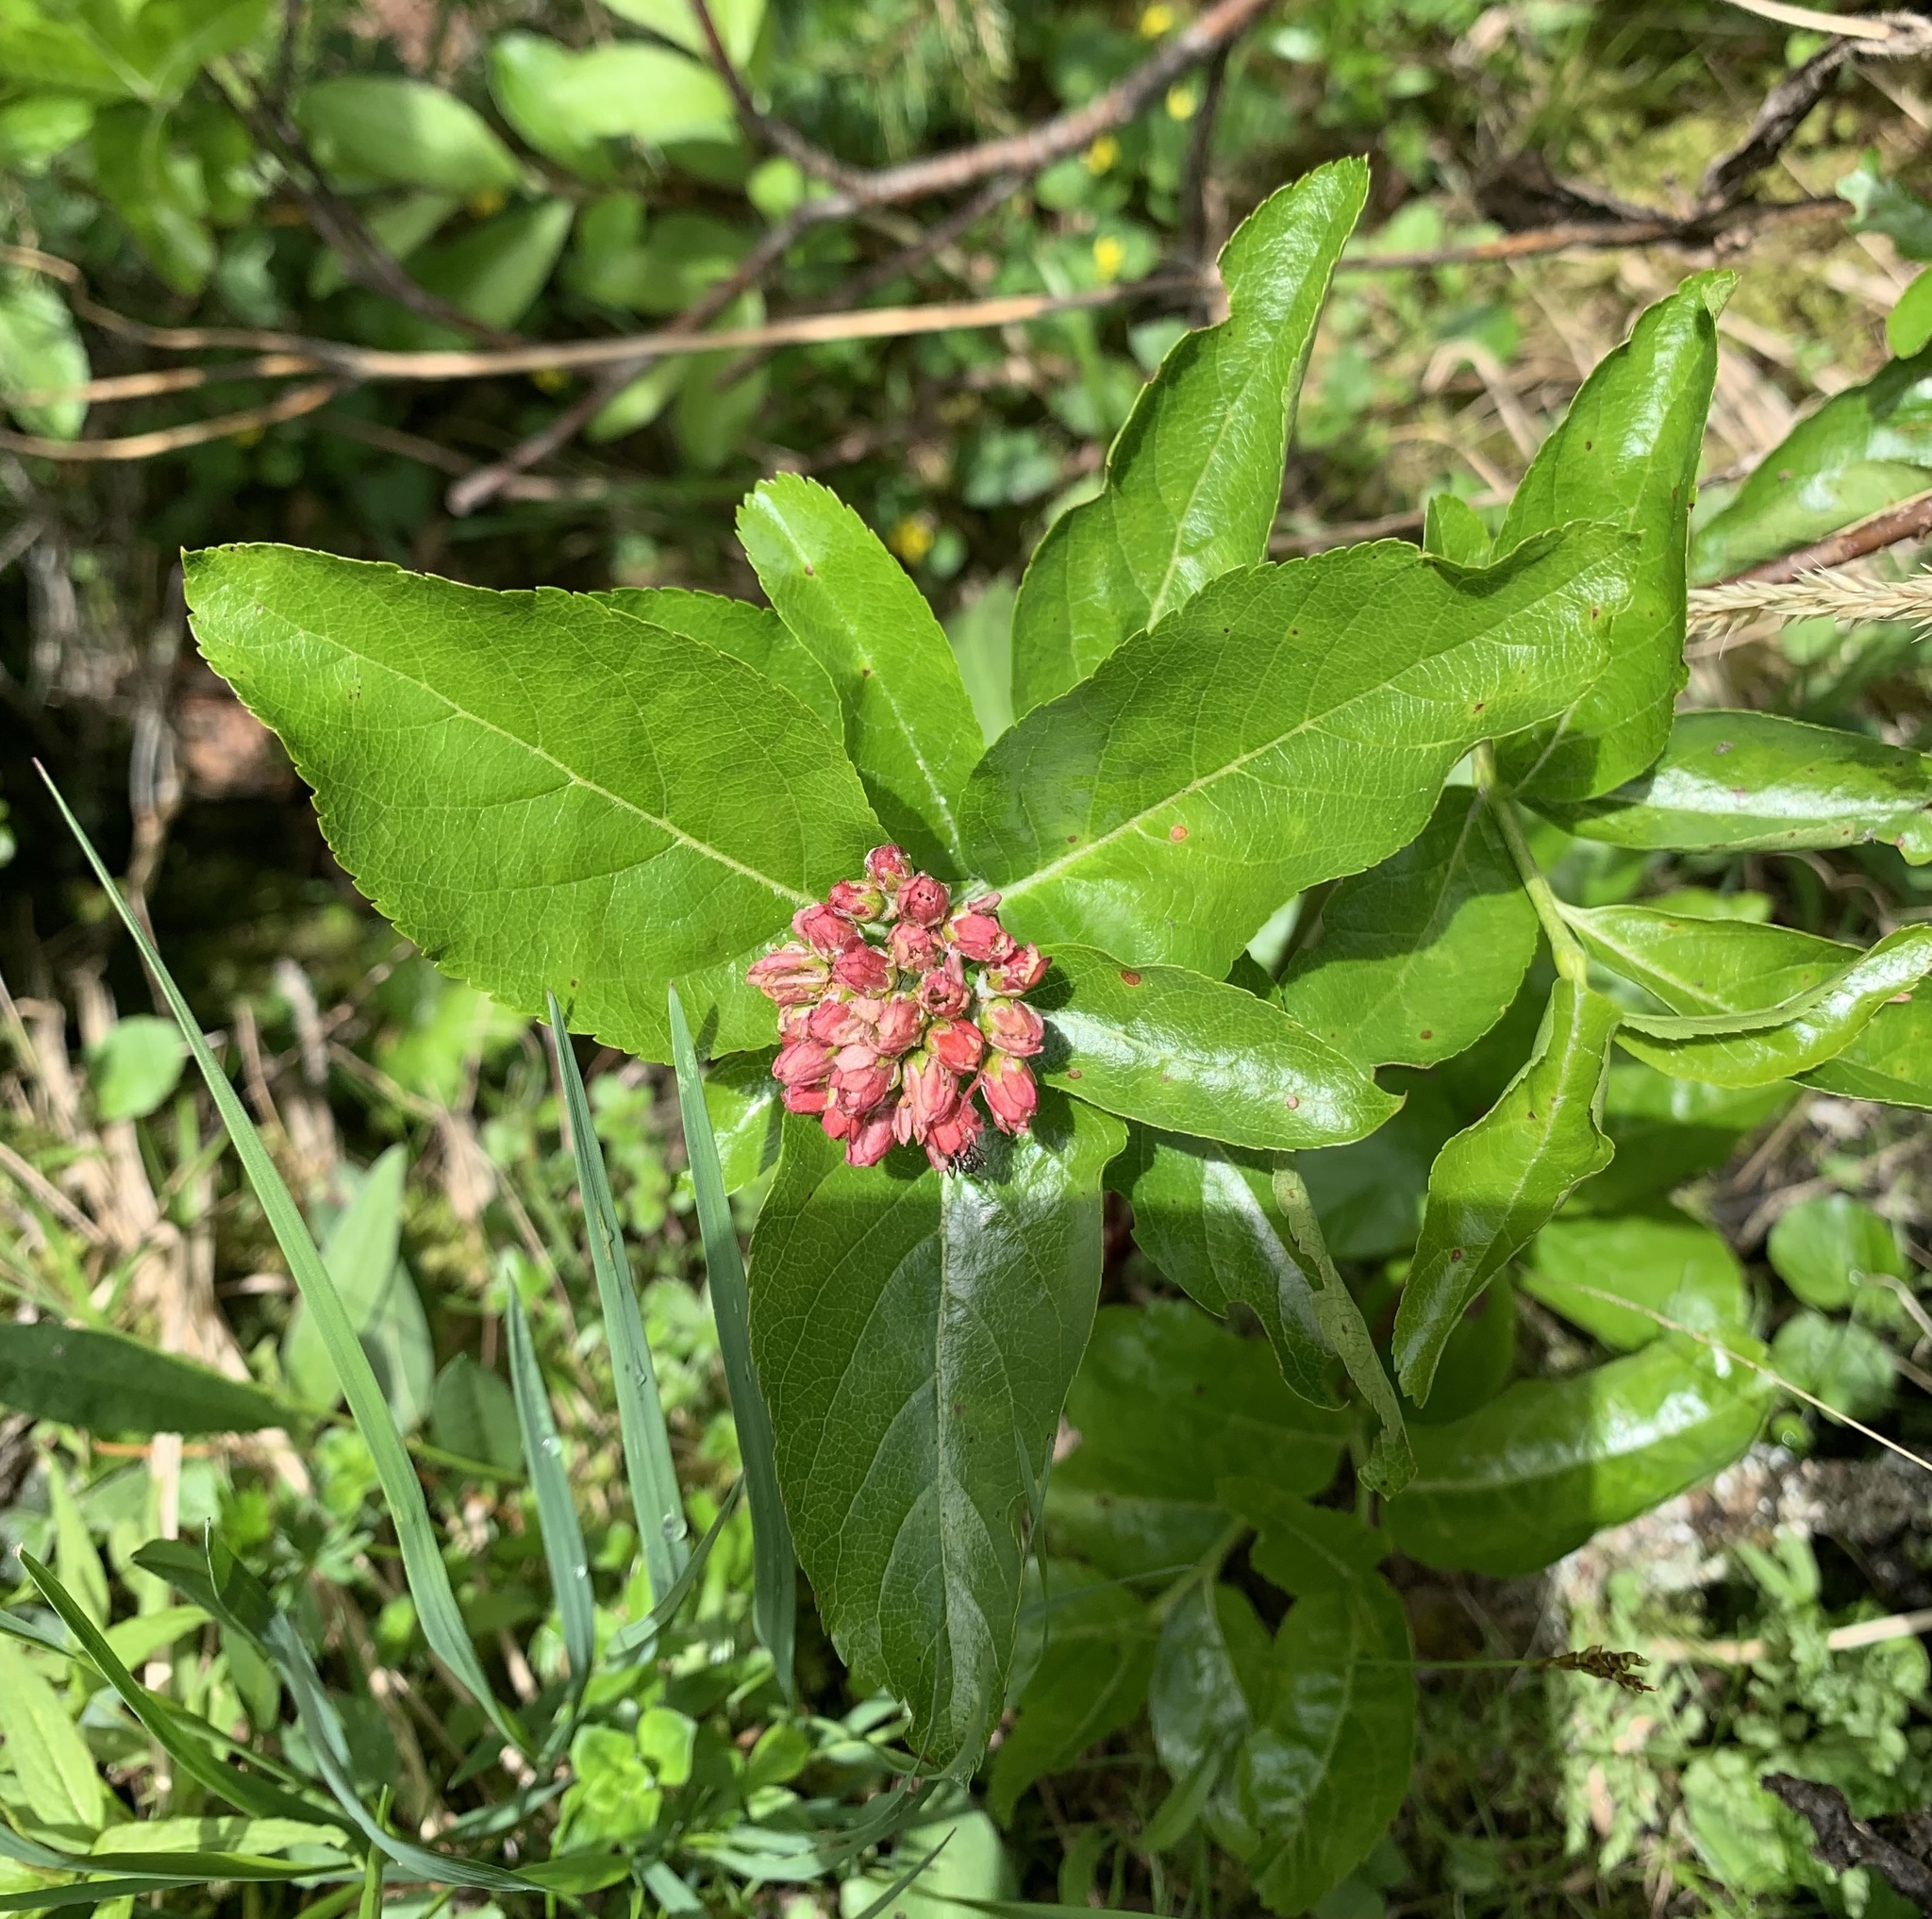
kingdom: Plantae
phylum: Tracheophyta
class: Magnoliopsida
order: Rosales
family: Rosaceae
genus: Chamaemespilus
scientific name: Chamaemespilus alpina
